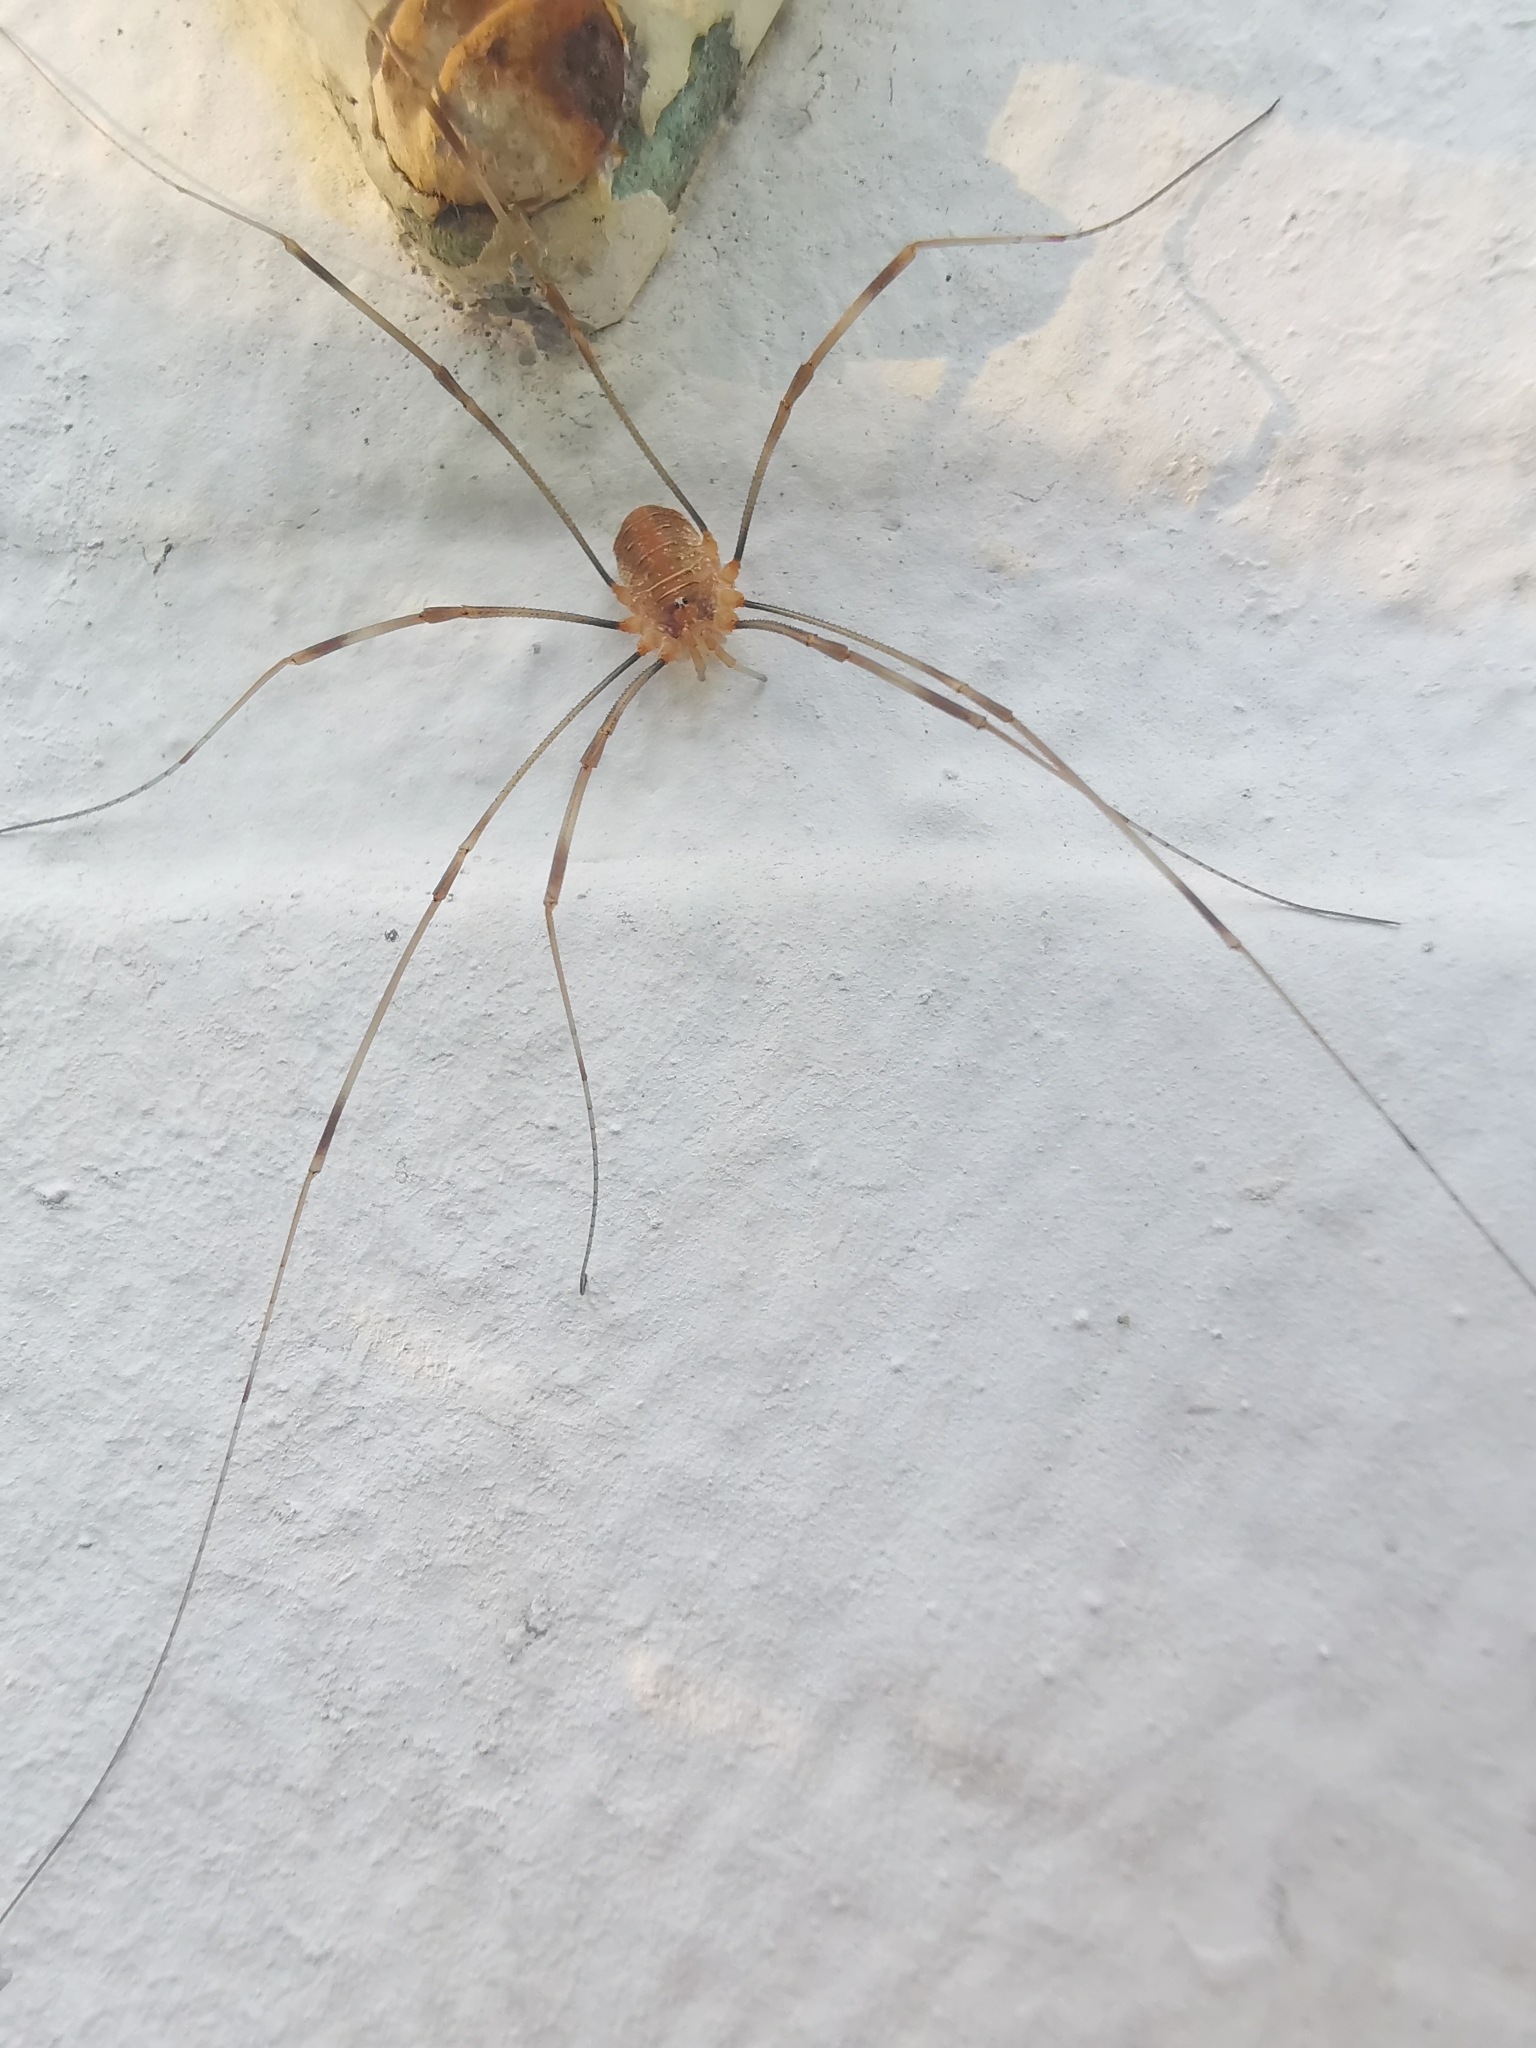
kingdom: Animalia
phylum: Arthropoda
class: Arachnida
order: Opiliones
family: Phalangiidae
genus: Opilio
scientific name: Opilio canestrinii
